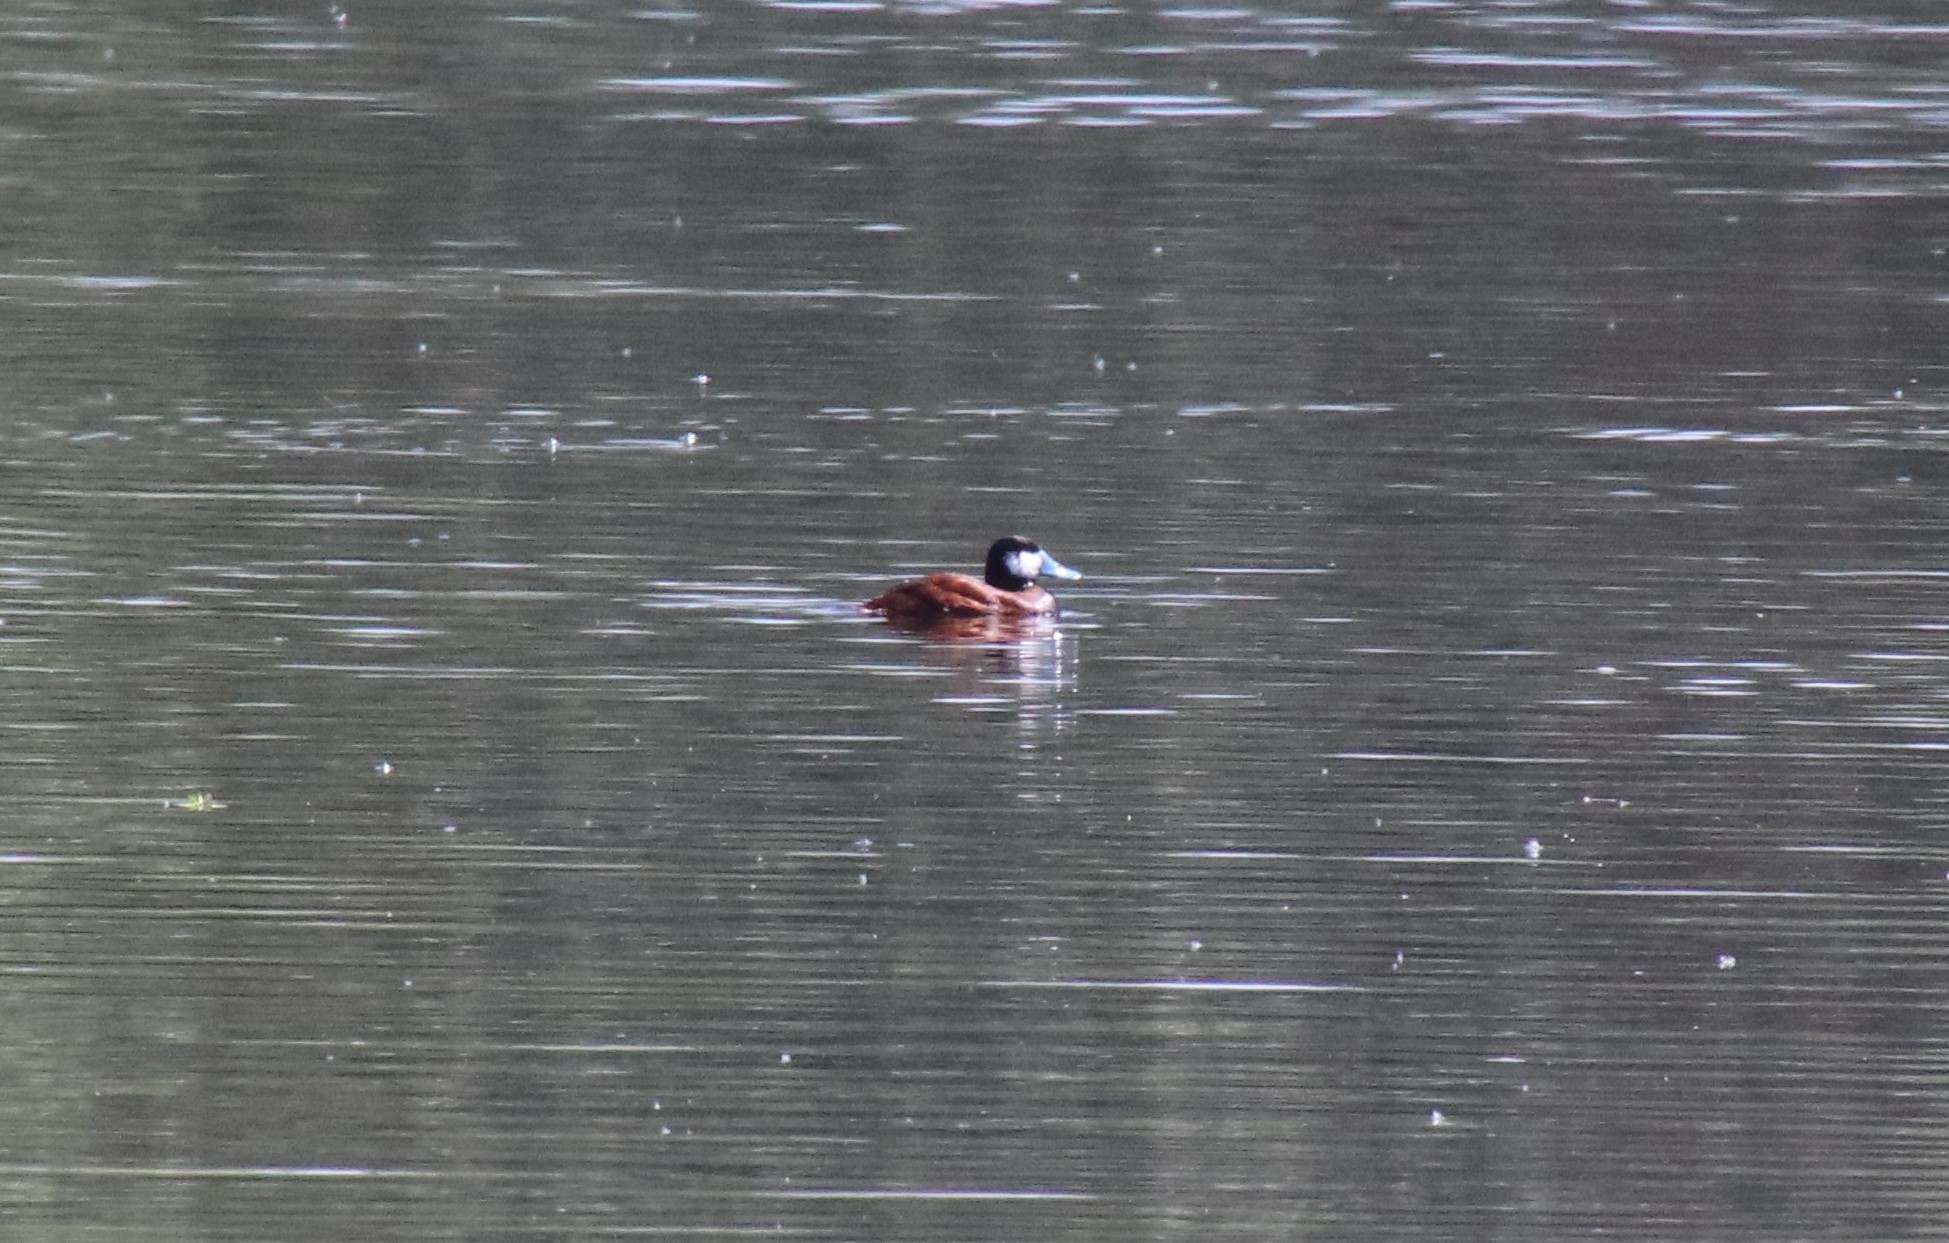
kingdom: Animalia
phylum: Chordata
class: Aves
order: Anseriformes
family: Anatidae
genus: Oxyura
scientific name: Oxyura jamaicensis
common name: Ruddy duck
